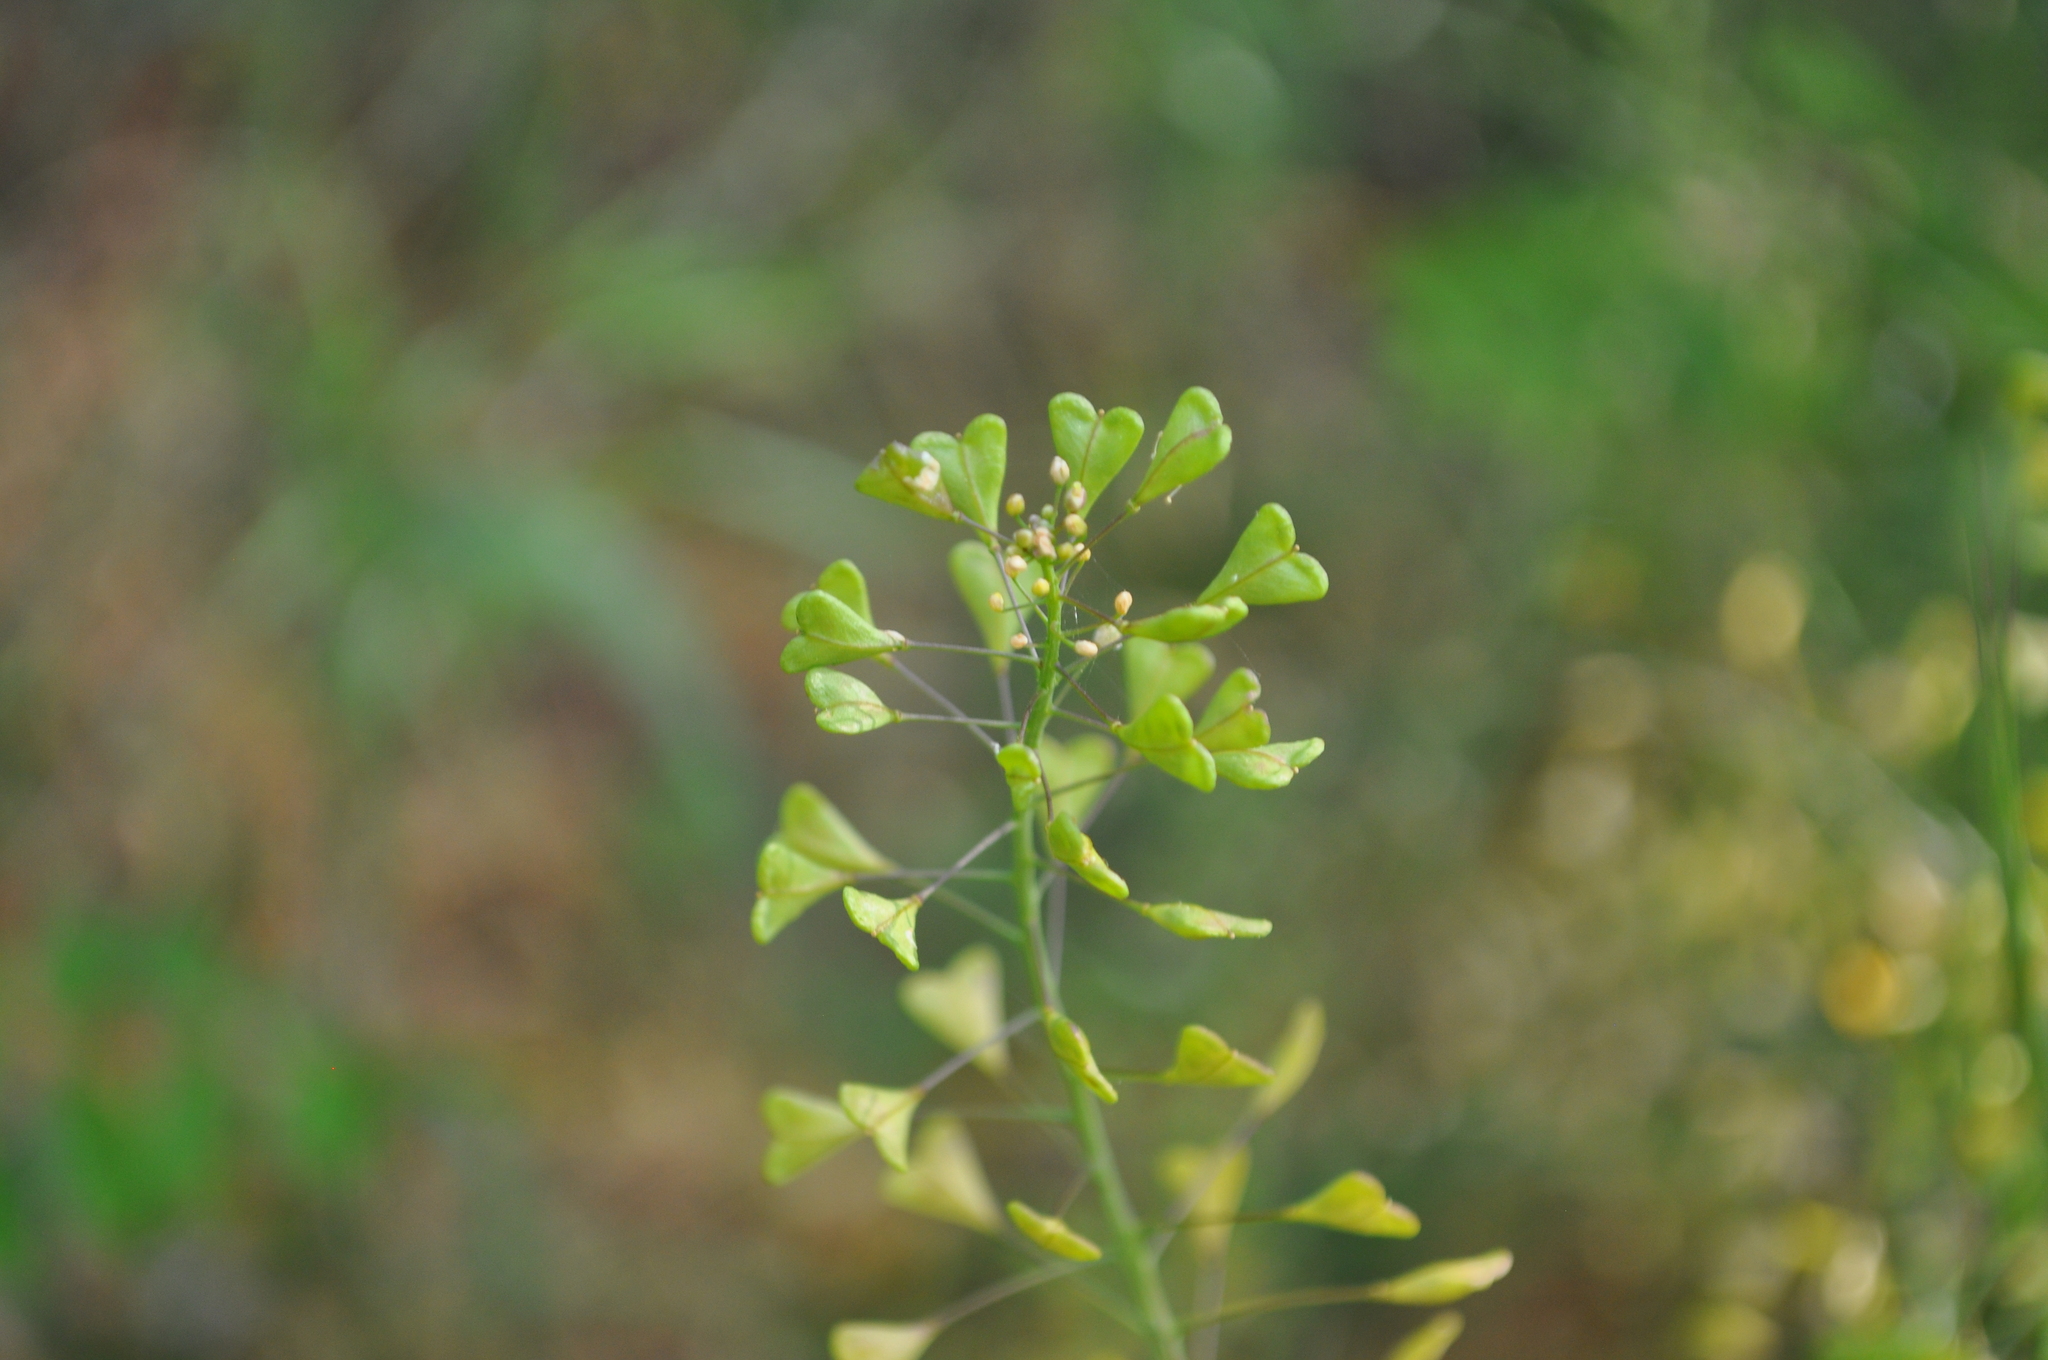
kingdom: Plantae
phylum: Tracheophyta
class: Magnoliopsida
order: Brassicales
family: Brassicaceae
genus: Capsella
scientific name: Capsella bursa-pastoris
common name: Shepherd's purse
